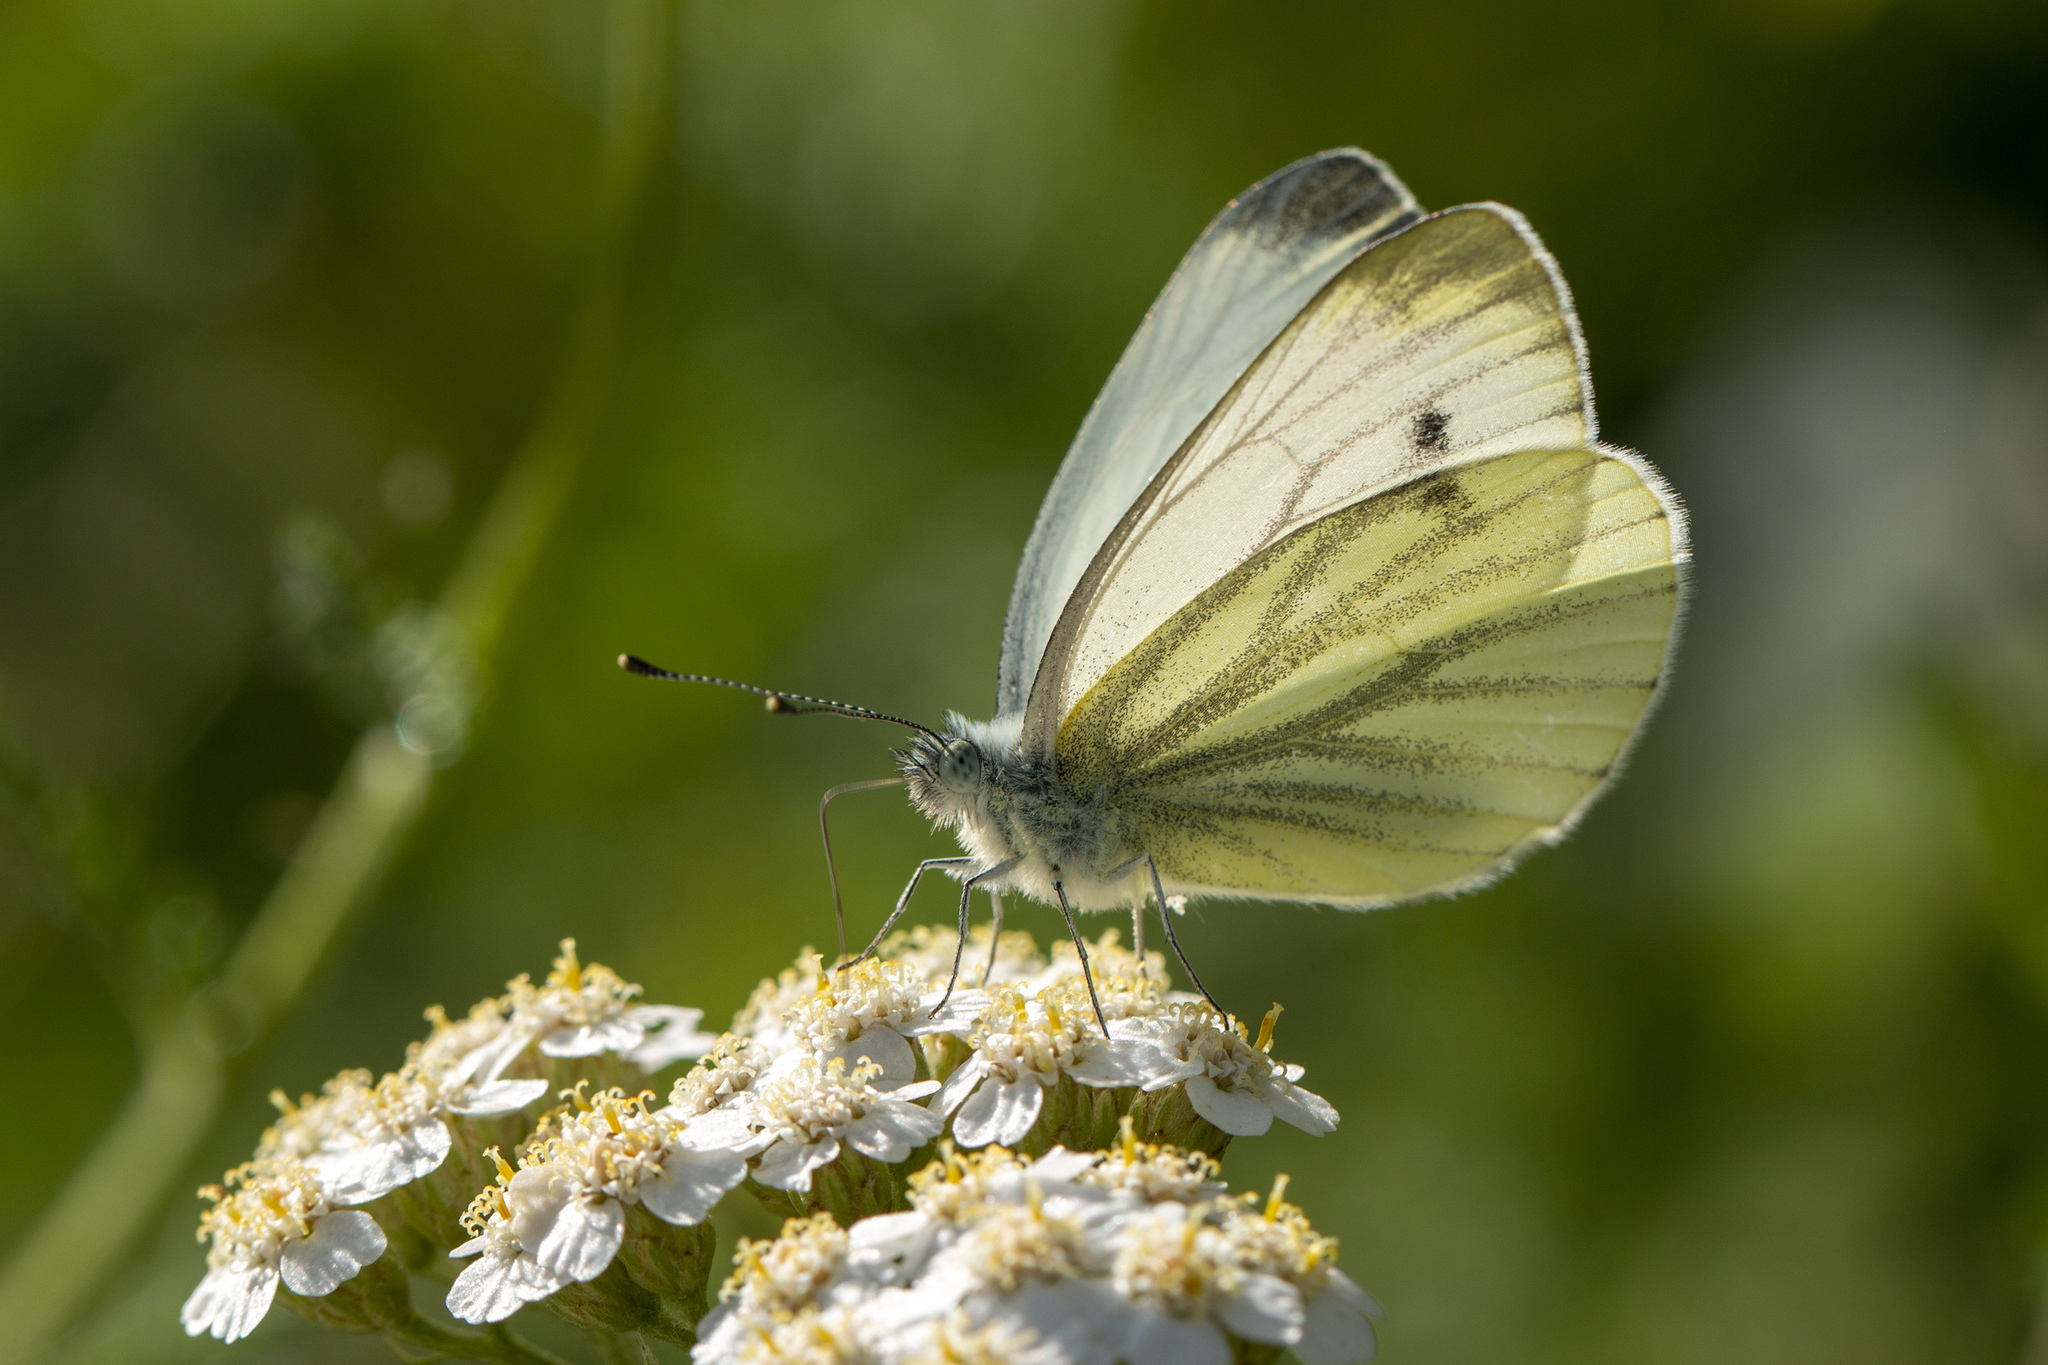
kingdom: Animalia
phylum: Arthropoda
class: Insecta
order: Lepidoptera
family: Pieridae
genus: Pieris
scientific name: Pieris napi
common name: Green-veined white
